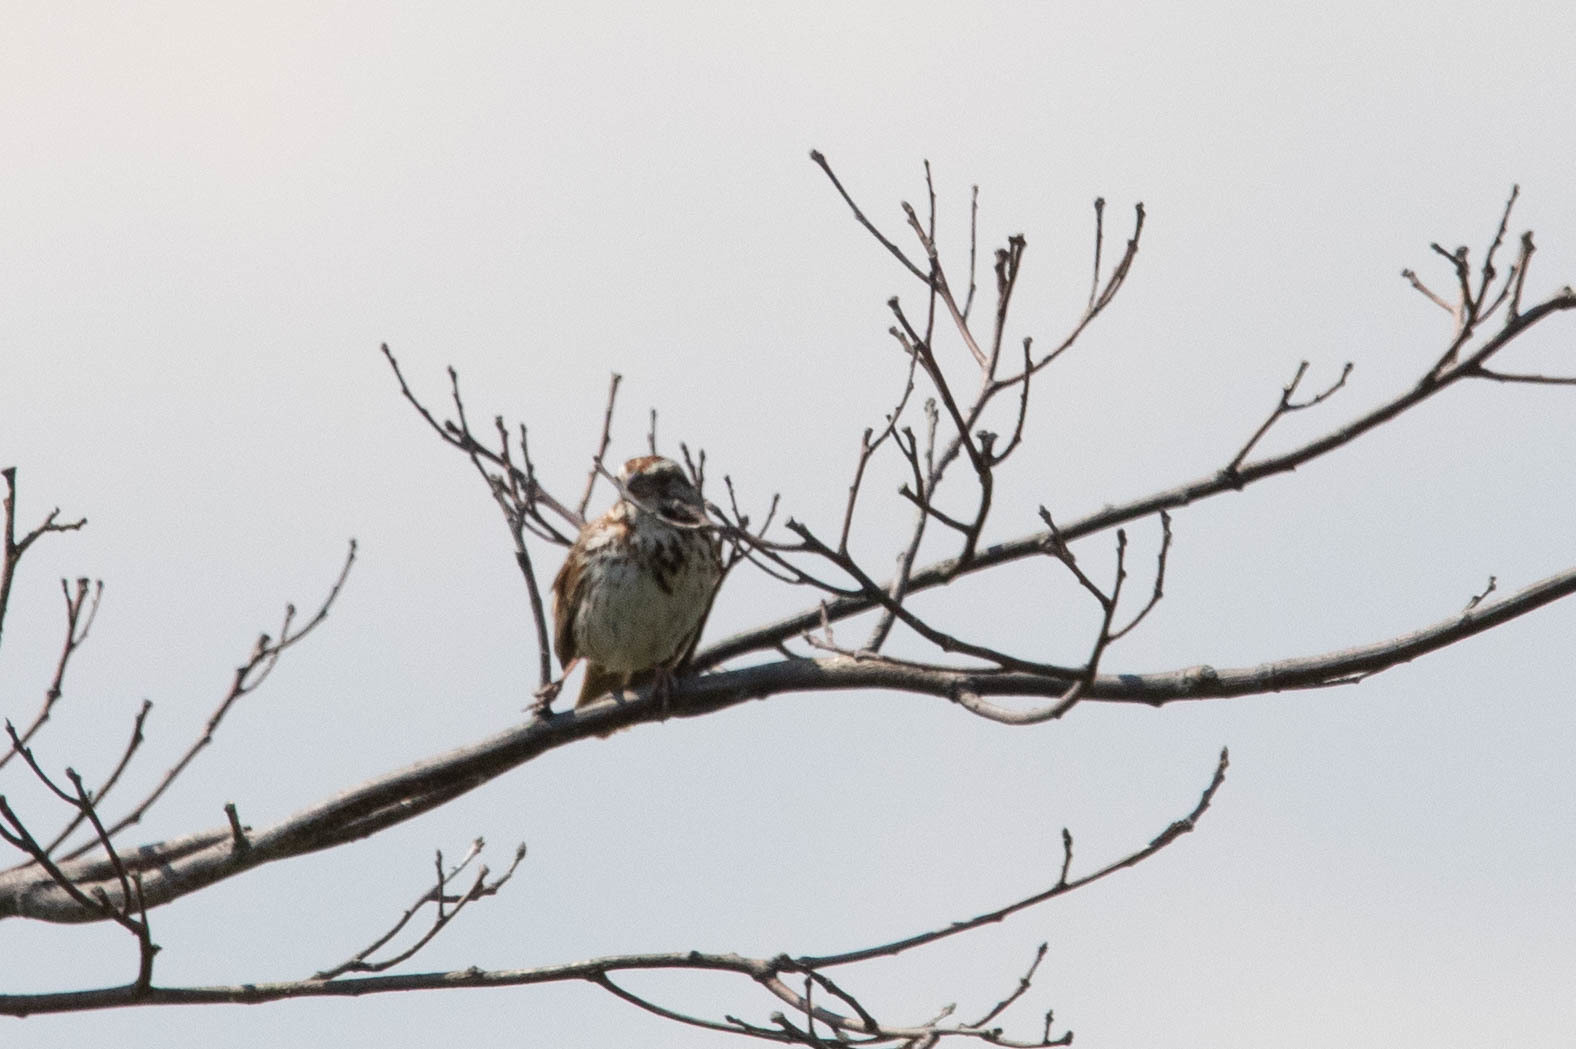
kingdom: Animalia
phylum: Chordata
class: Aves
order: Passeriformes
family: Passerellidae
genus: Melospiza
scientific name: Melospiza melodia
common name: Song sparrow
